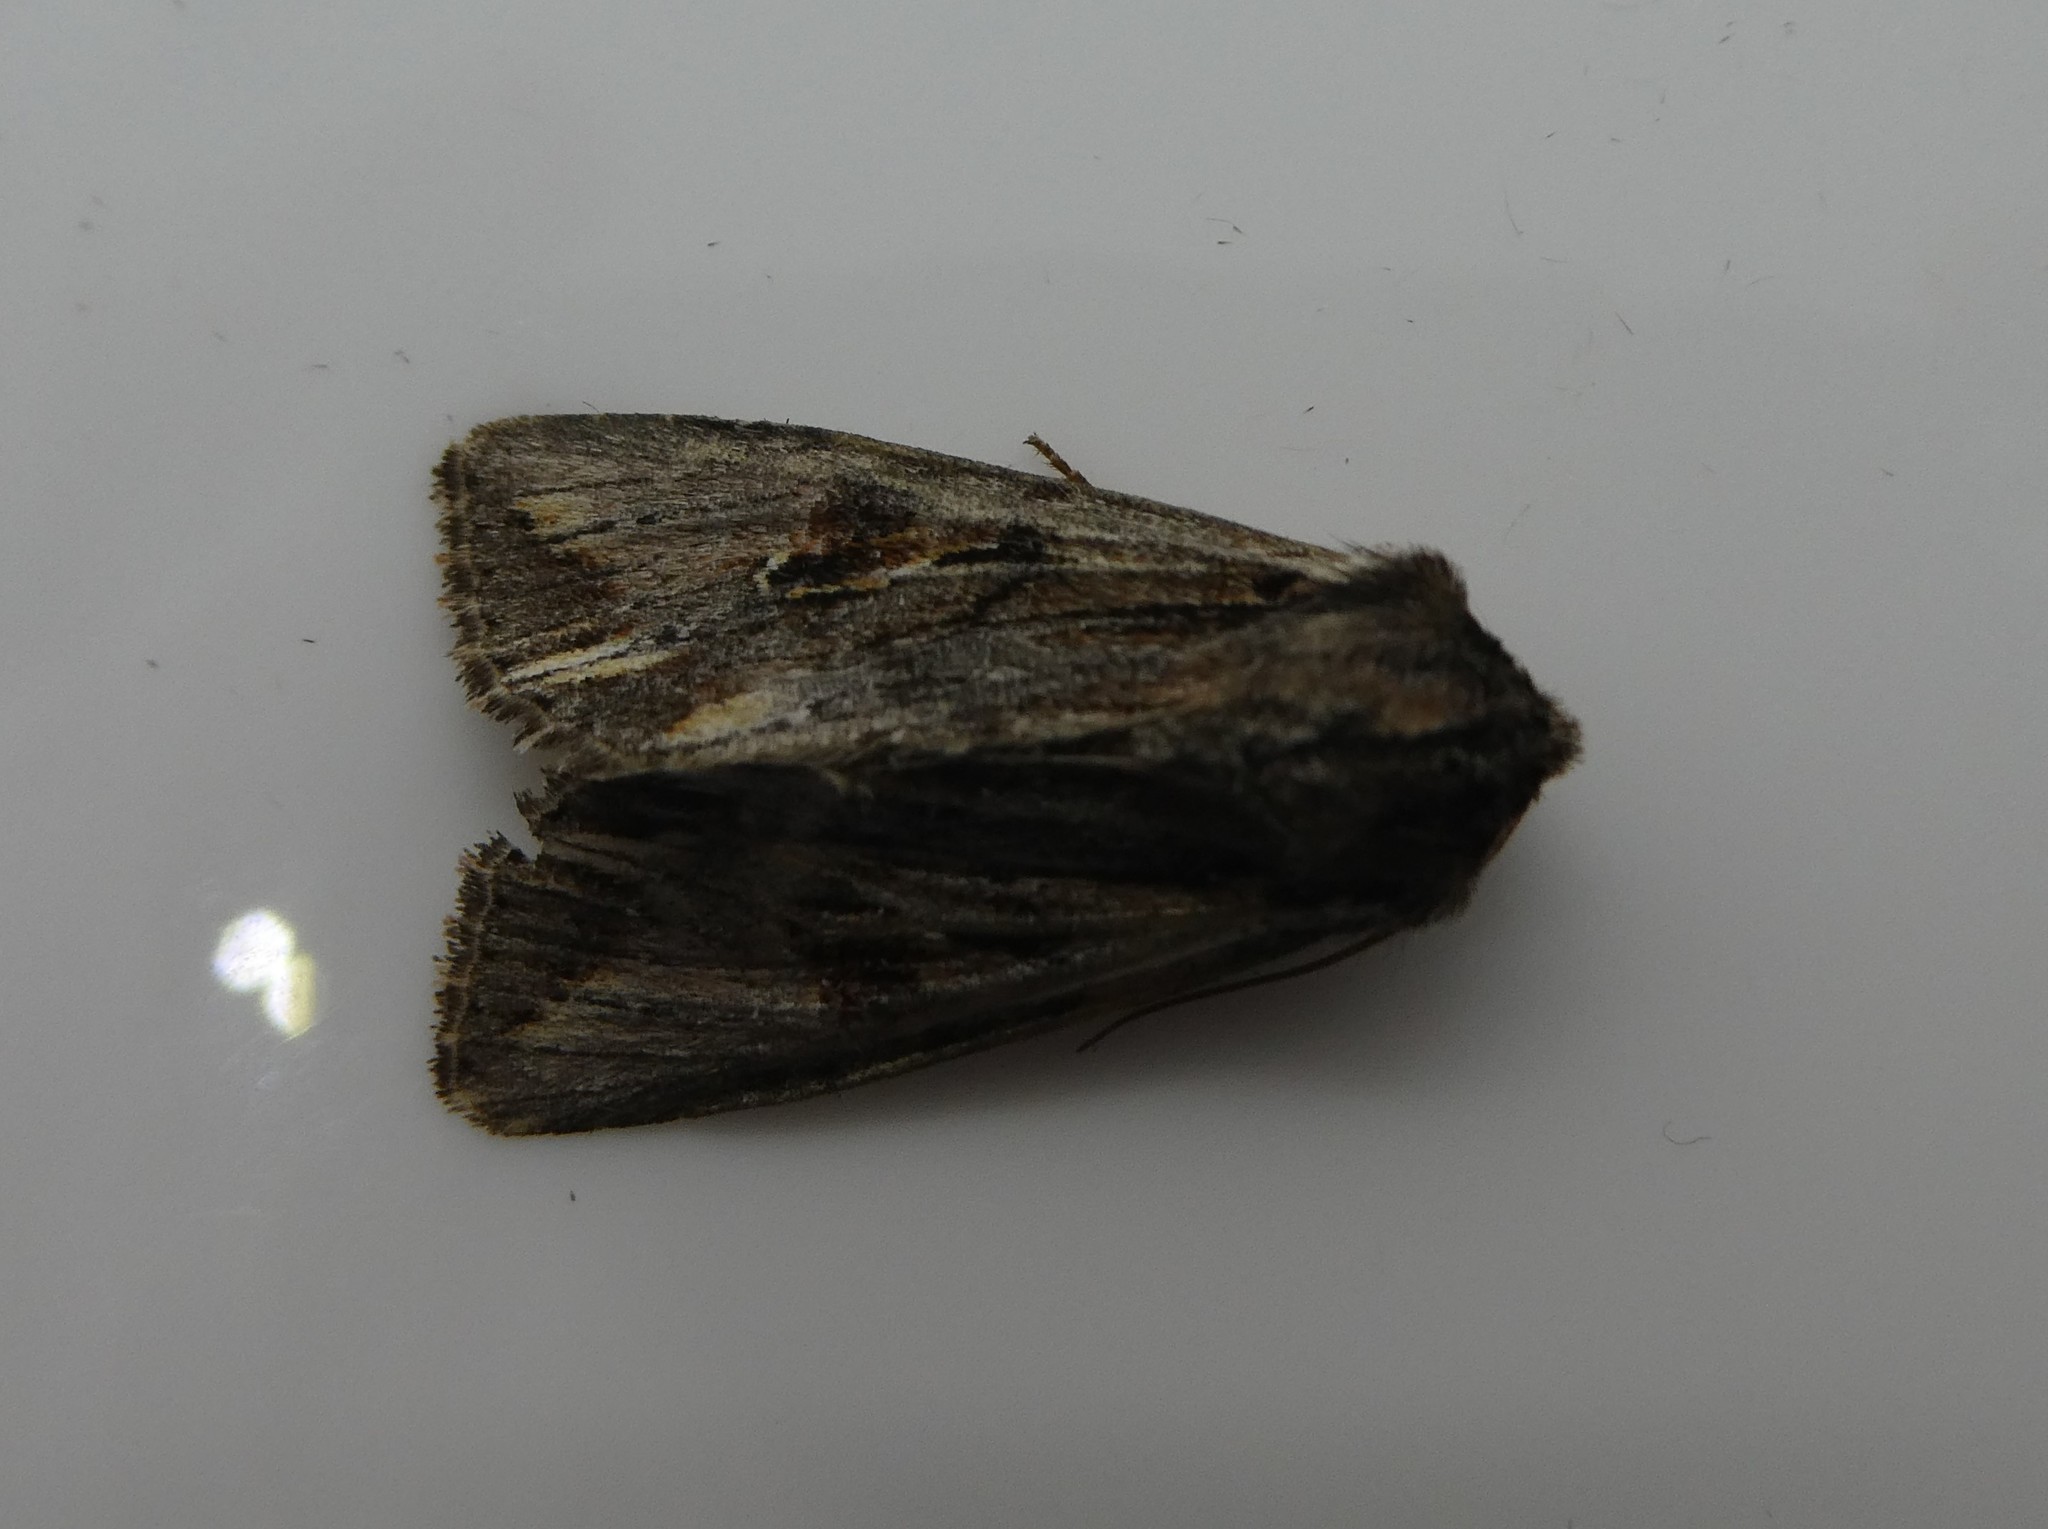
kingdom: Animalia
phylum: Arthropoda
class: Insecta
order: Lepidoptera
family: Noctuidae
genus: Achatia
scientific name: Achatia evicta
